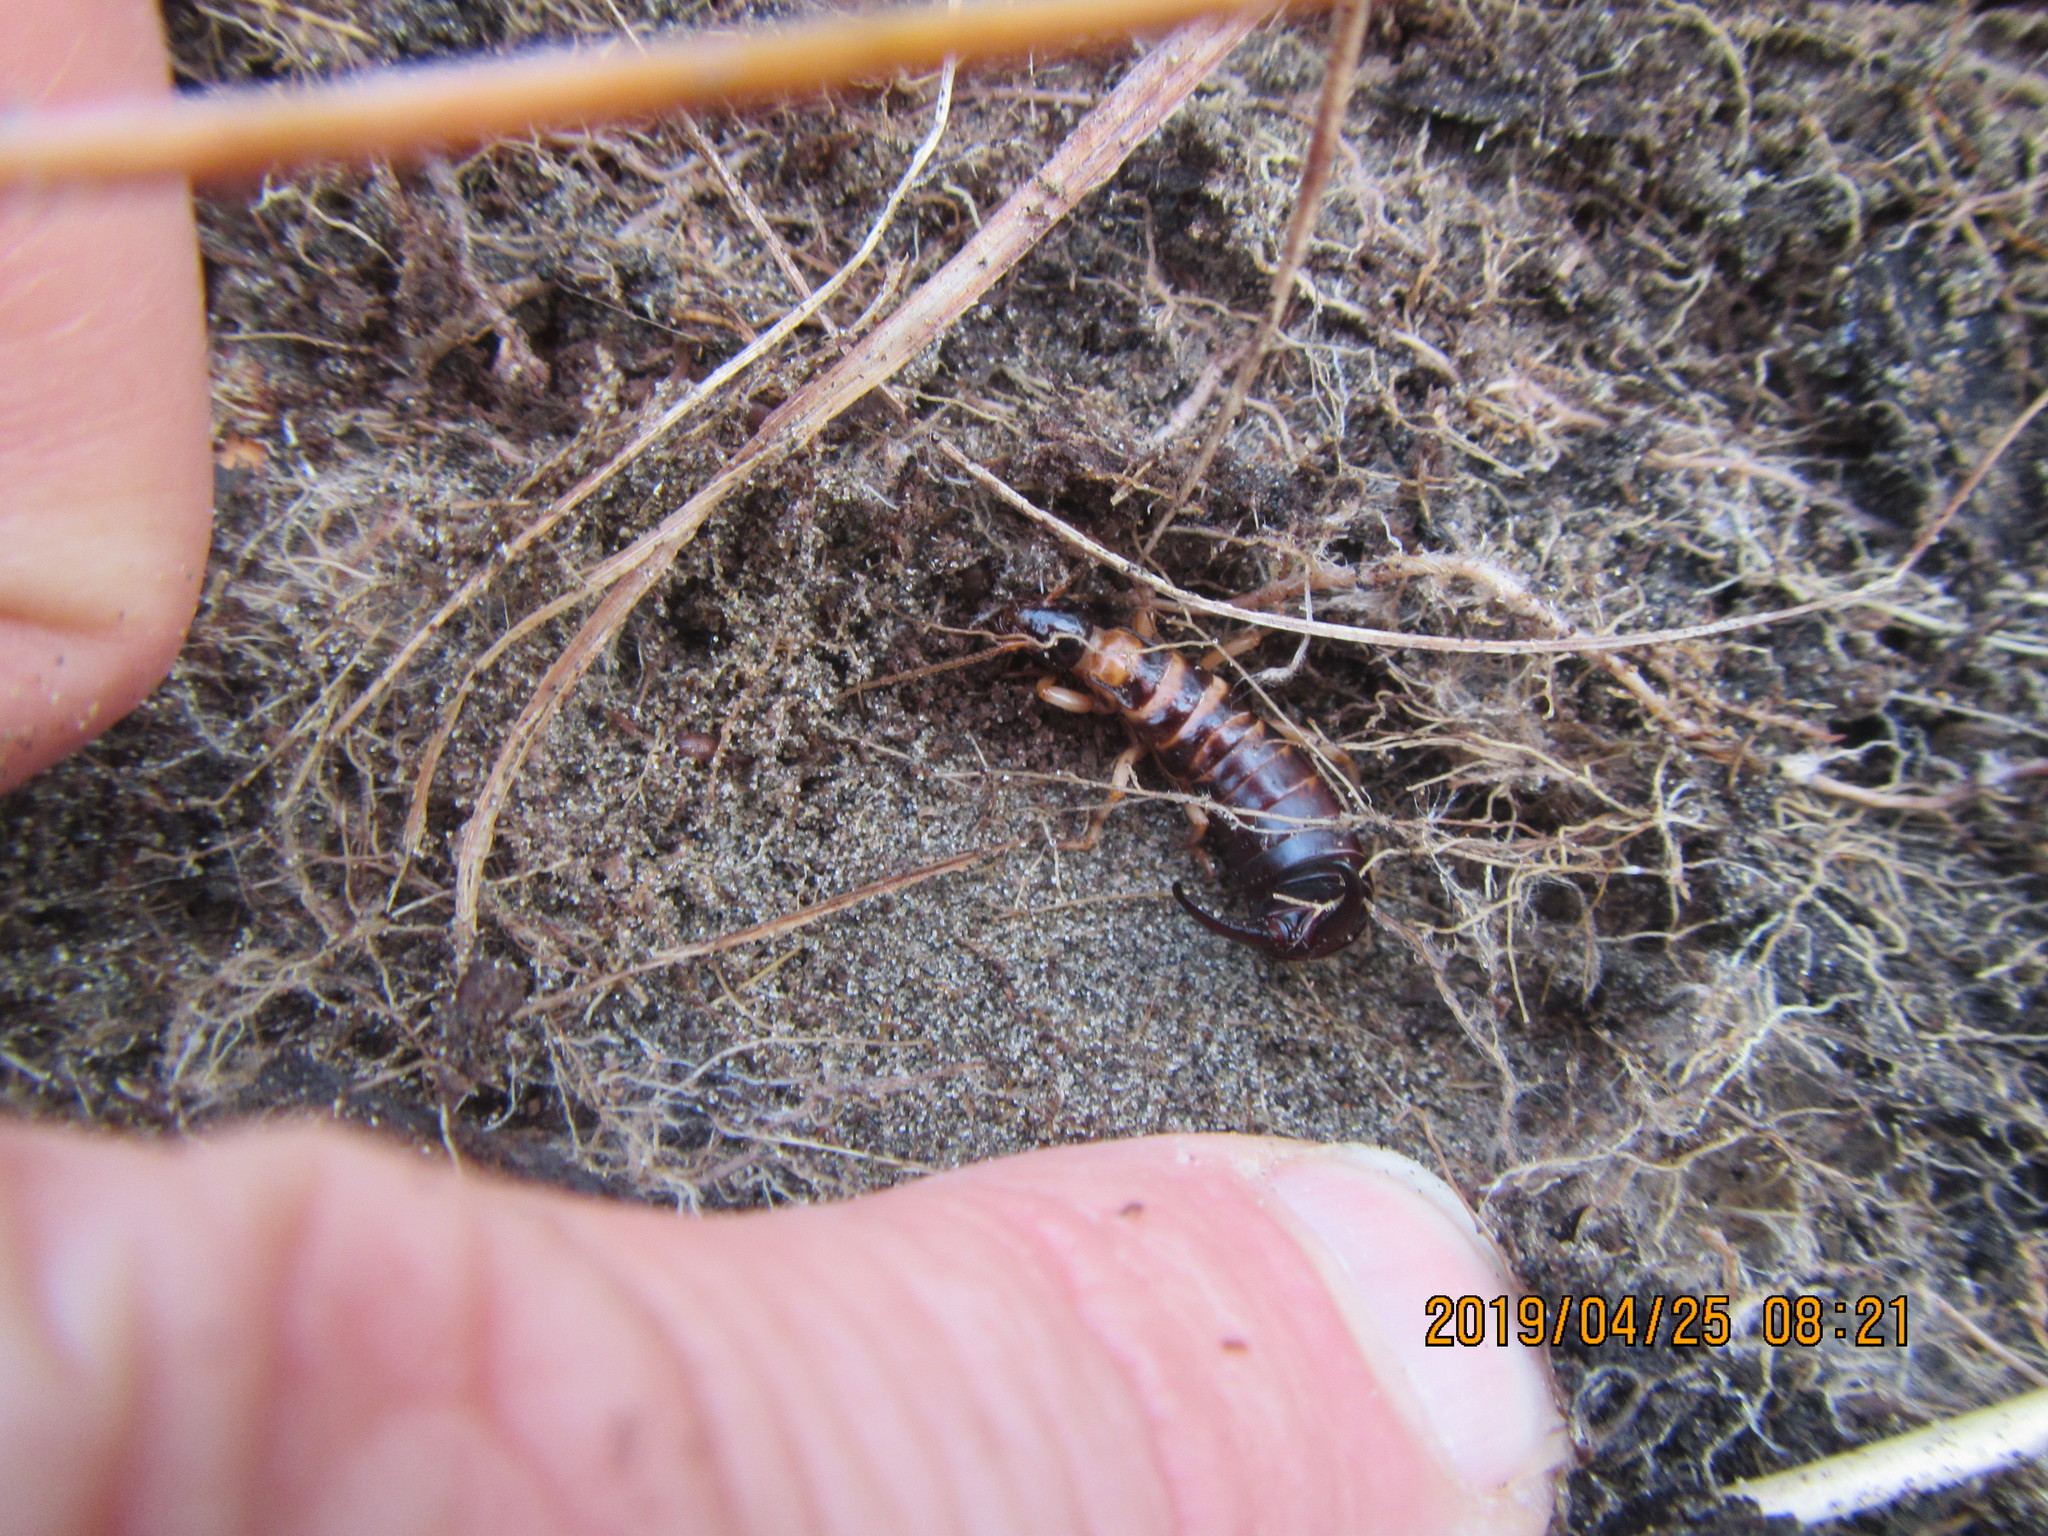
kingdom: Animalia
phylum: Arthropoda
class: Insecta
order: Dermaptera
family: Anisolabididae
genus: Anisolabis
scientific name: Anisolabis littorea
